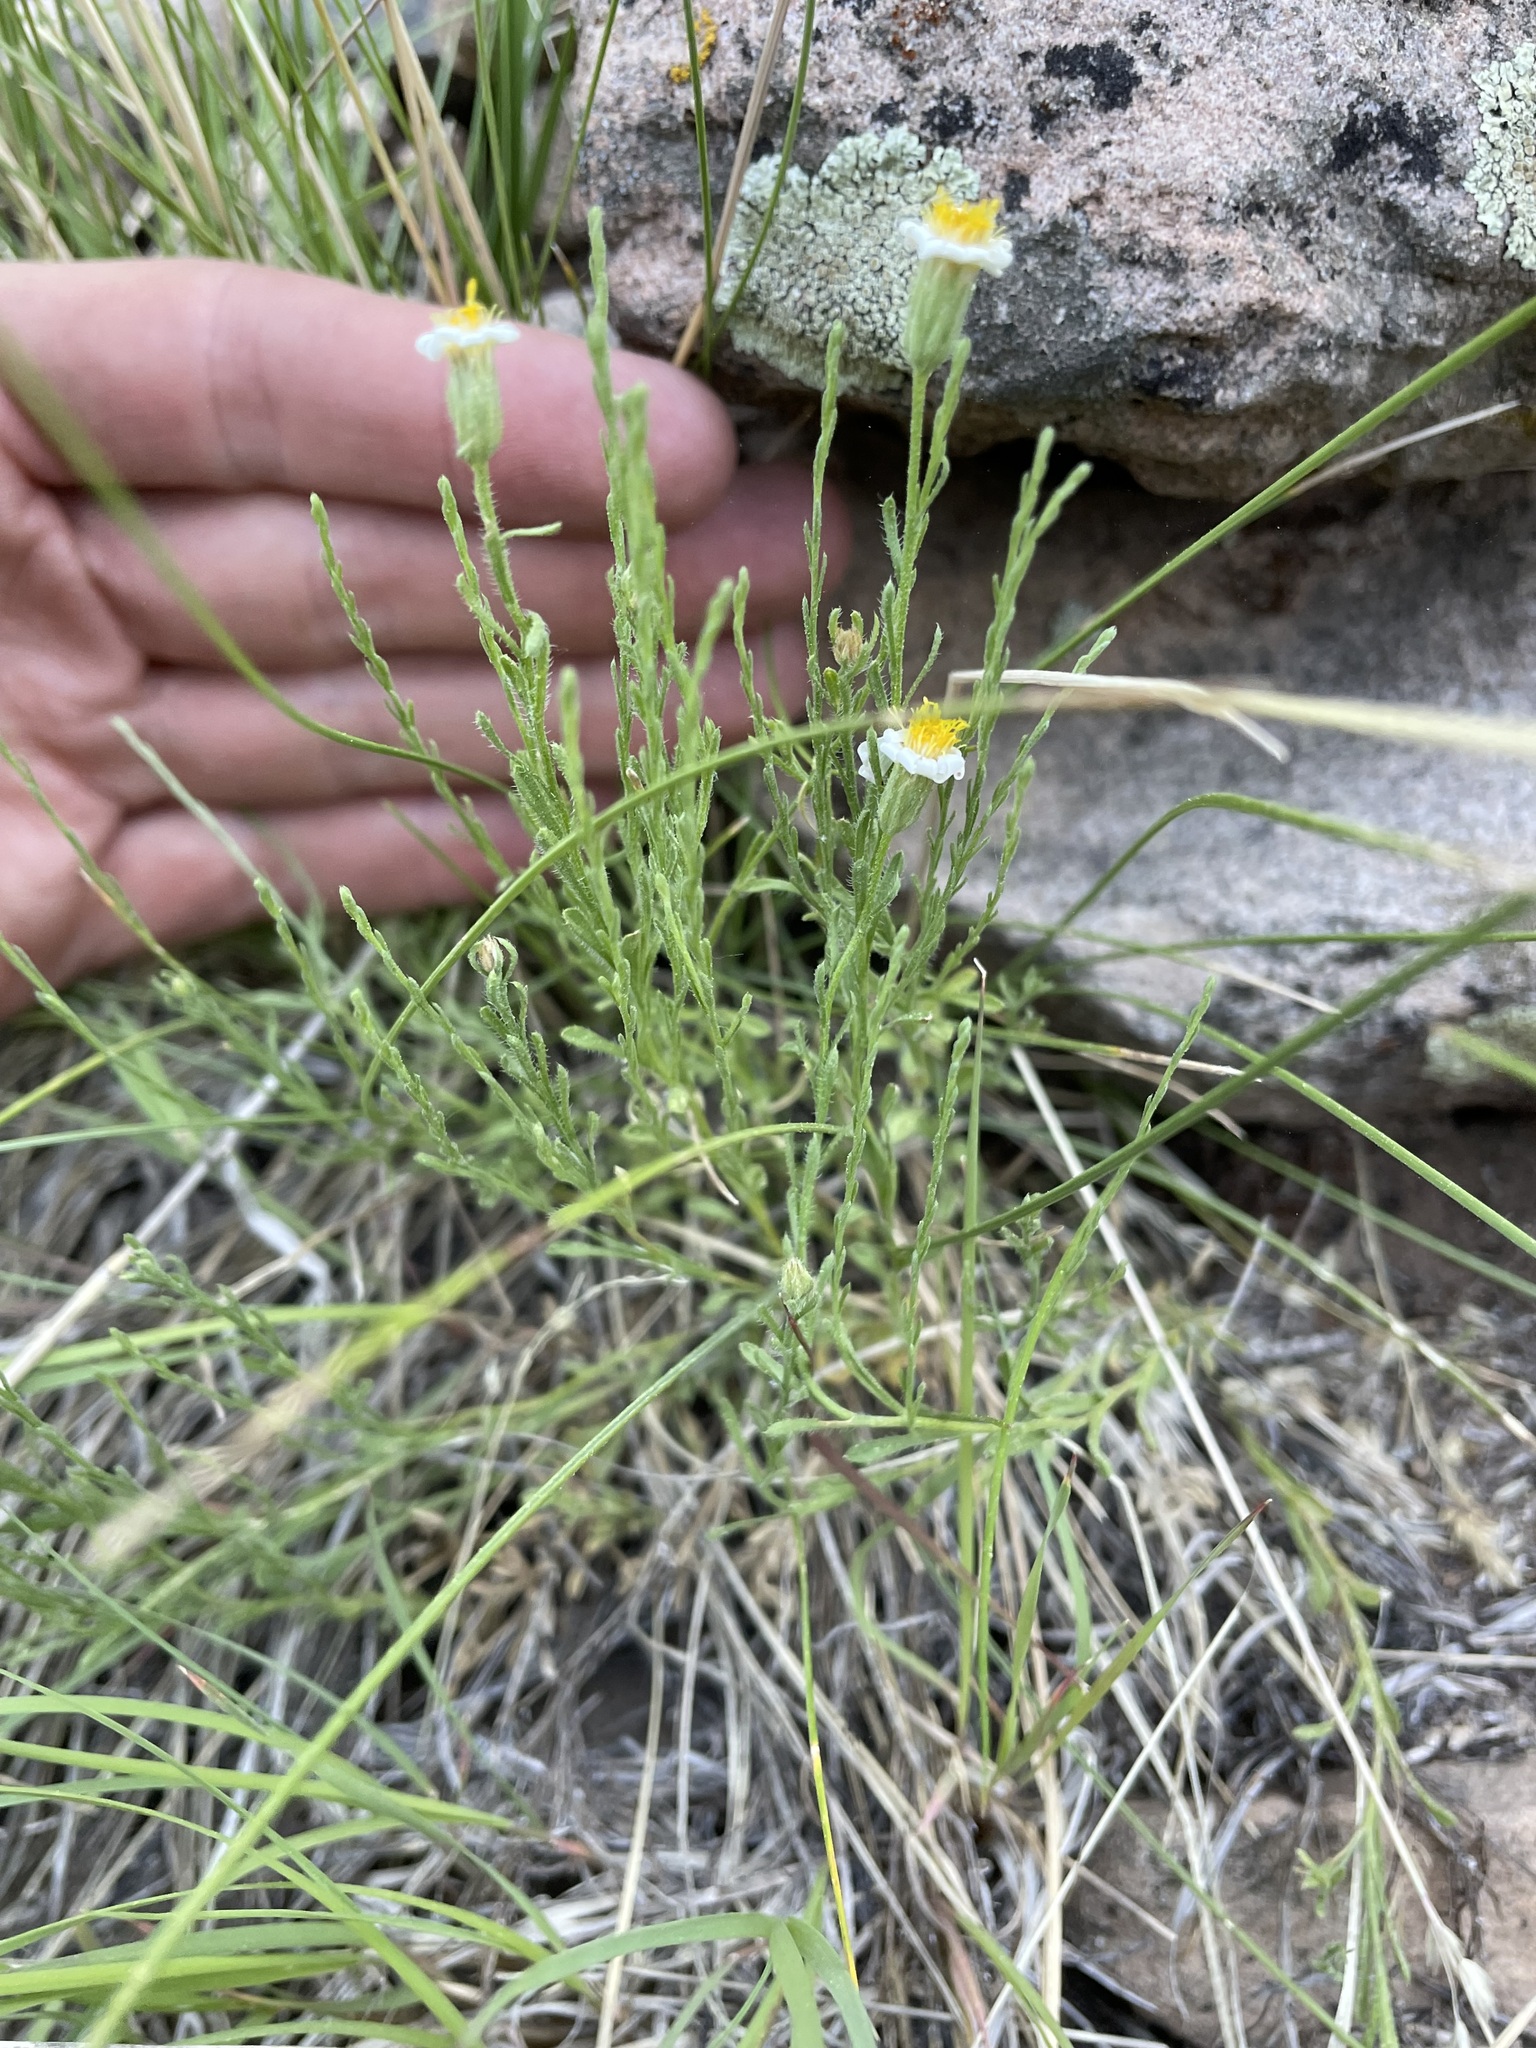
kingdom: Plantae
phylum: Tracheophyta
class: Magnoliopsida
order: Asterales
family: Asteraceae
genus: Chaetopappa
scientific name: Chaetopappa ericoides
